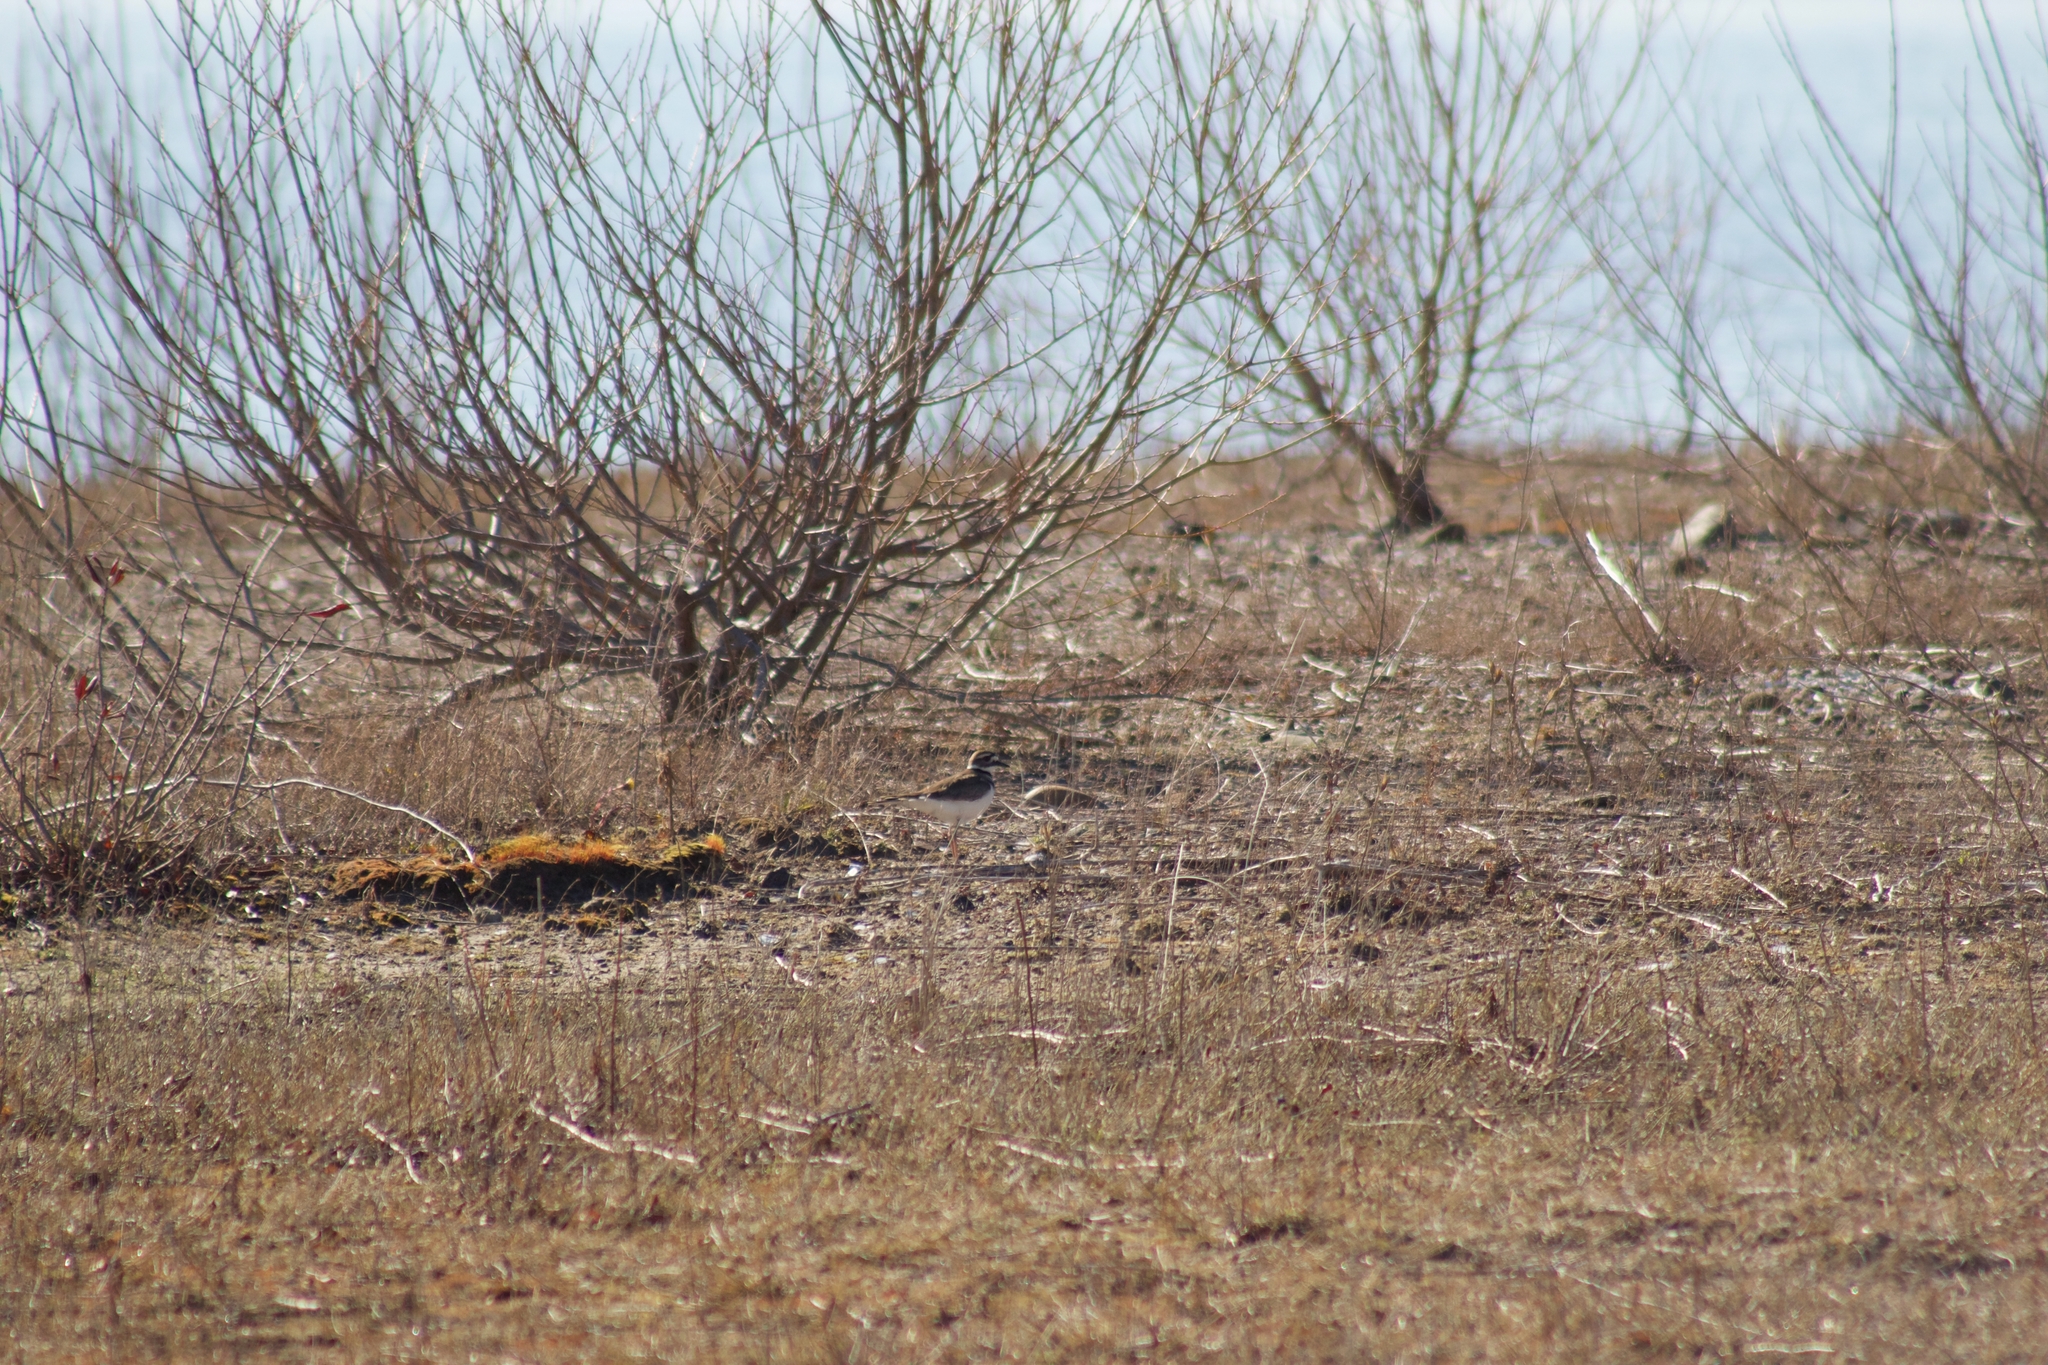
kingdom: Animalia
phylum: Chordata
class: Aves
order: Charadriiformes
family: Charadriidae
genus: Charadrius
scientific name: Charadrius vociferus
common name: Killdeer
